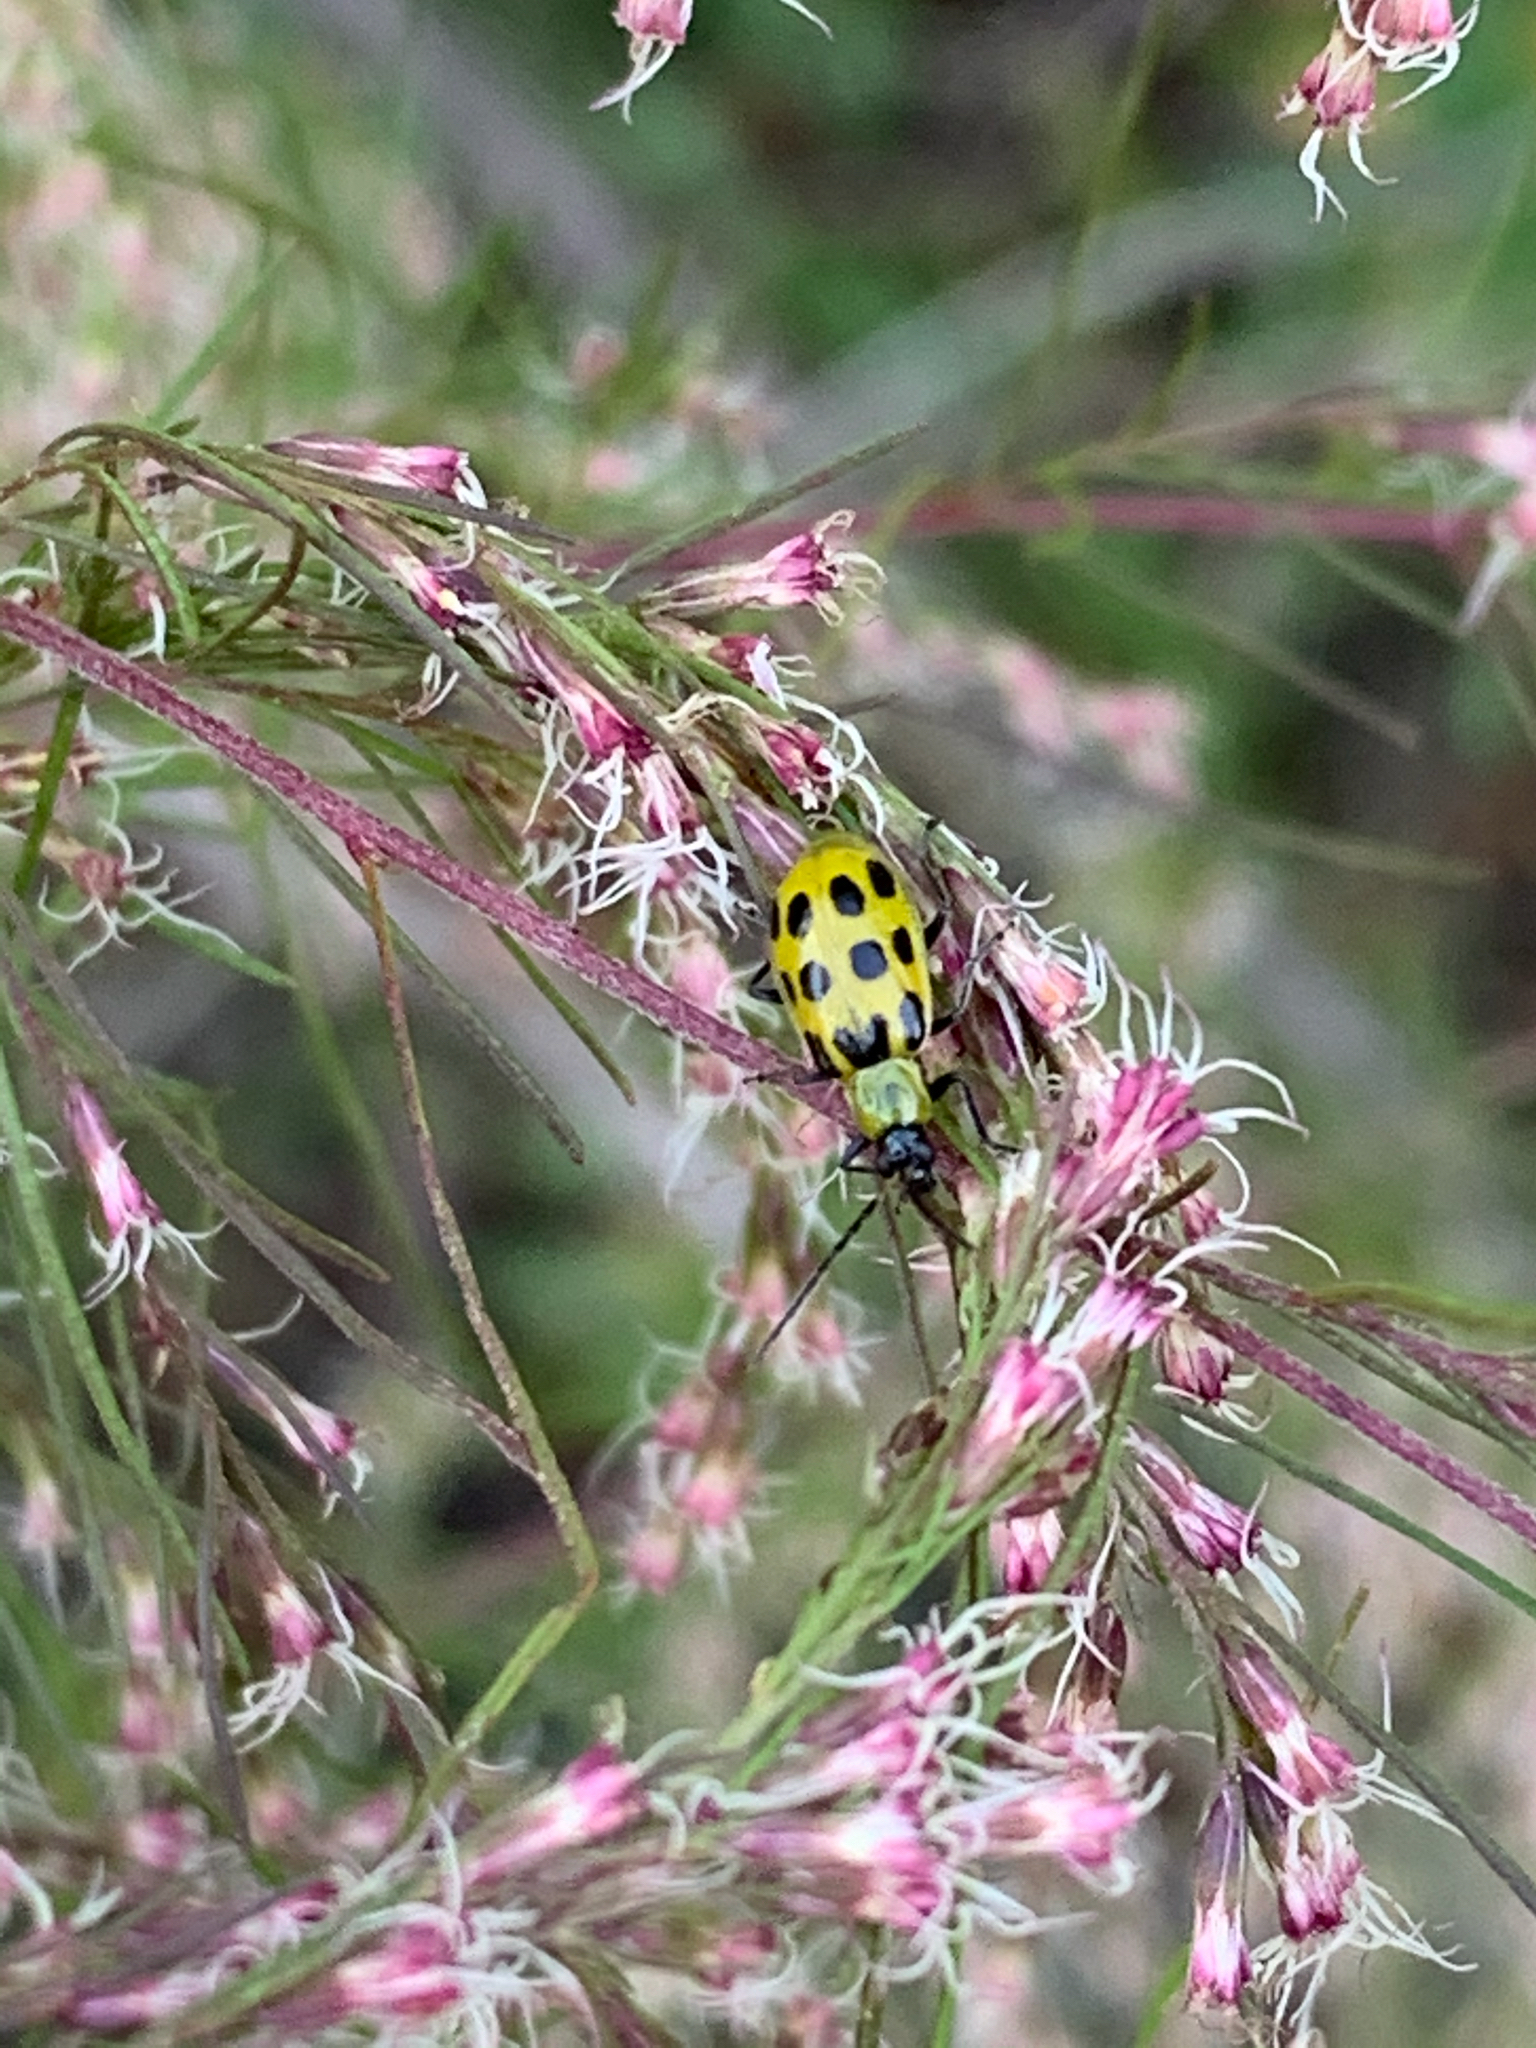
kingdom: Animalia
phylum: Arthropoda
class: Insecta
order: Coleoptera
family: Chrysomelidae
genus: Diabrotica
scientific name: Diabrotica undecimpunctata
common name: Spotted cucumber beetle
